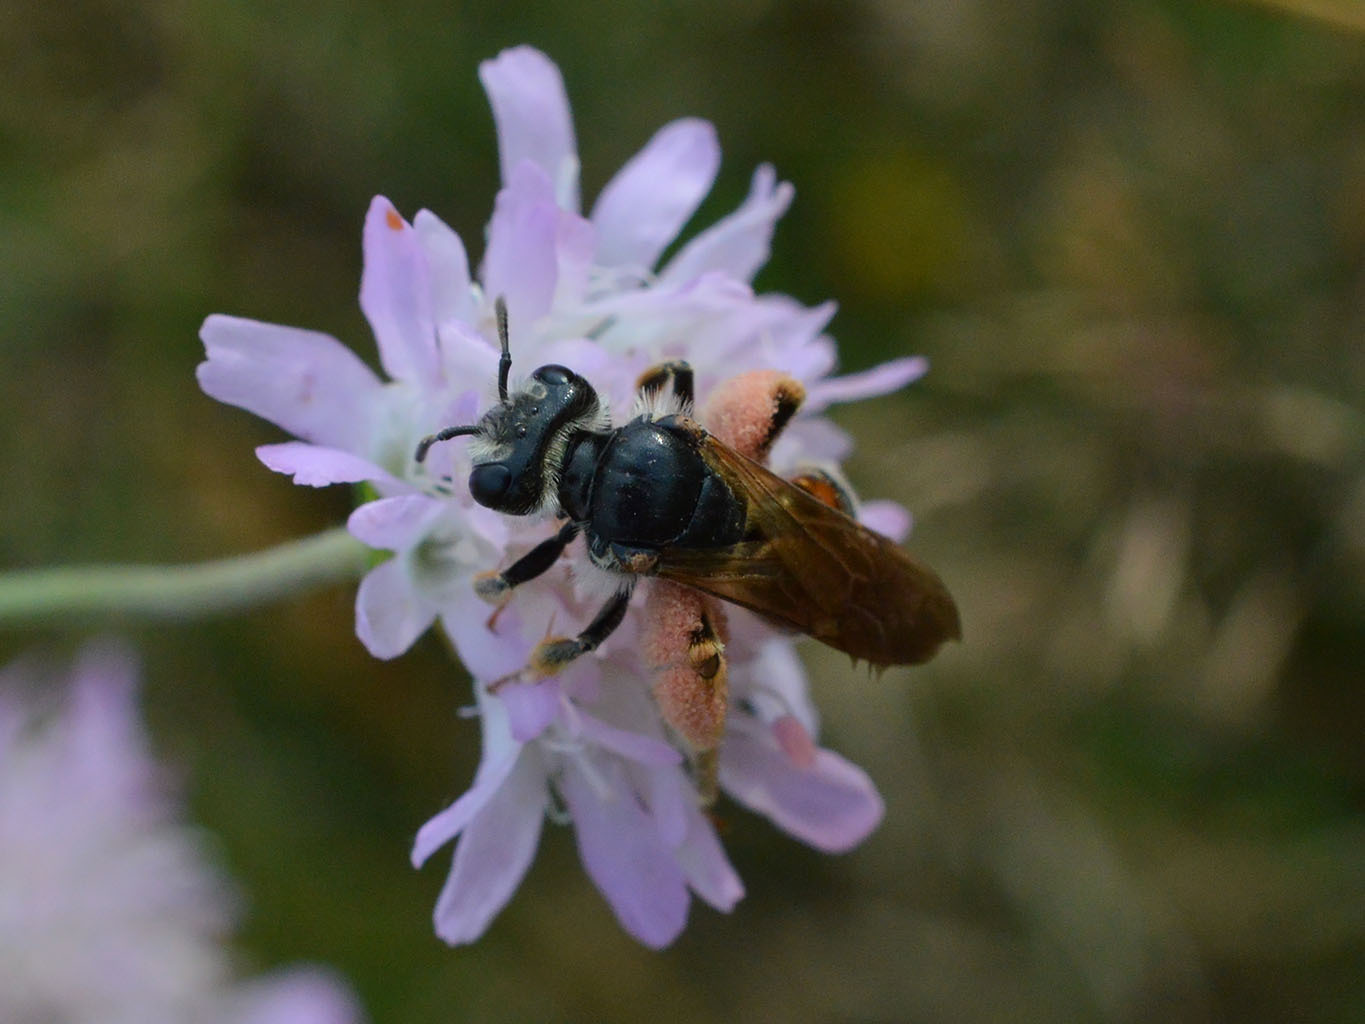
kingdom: Animalia
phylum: Arthropoda
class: Insecta
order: Hymenoptera
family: Andrenidae
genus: Andrena
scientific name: Andrena hattorfiana
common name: Large scabious mining bee
